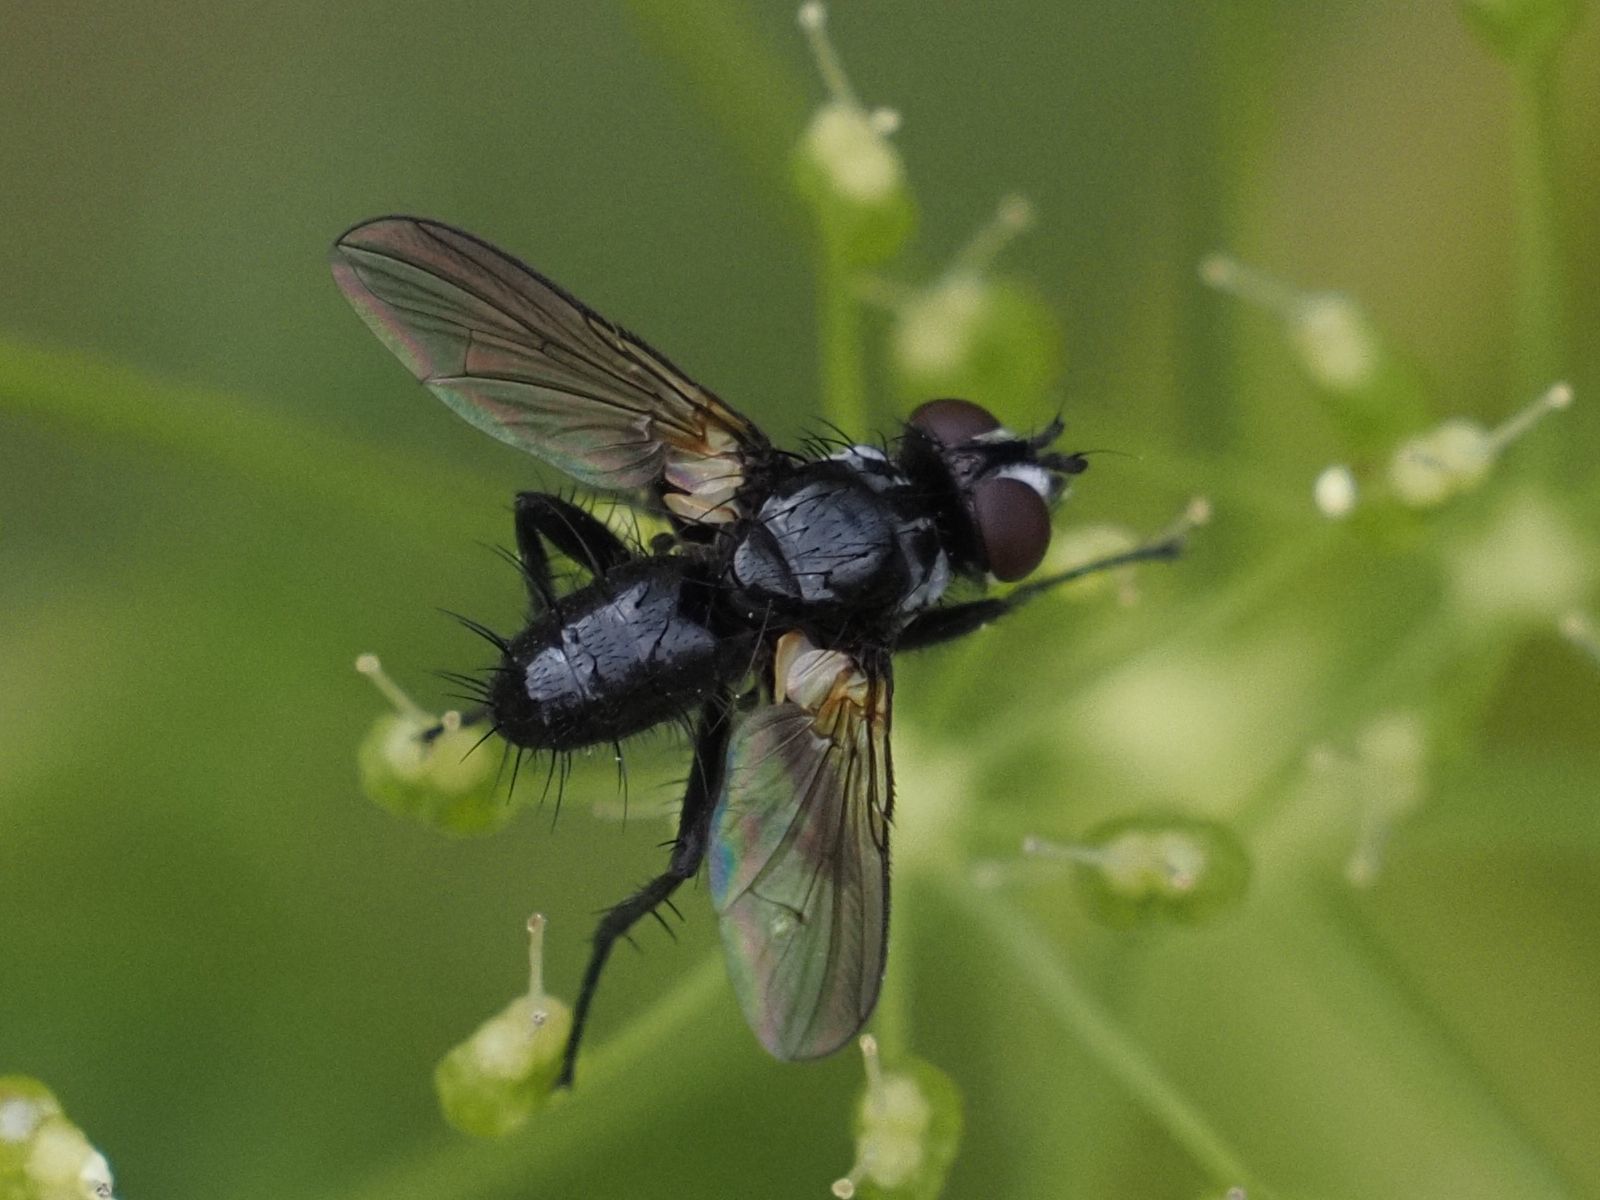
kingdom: Animalia
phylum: Arthropoda
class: Insecta
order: Diptera
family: Tachinidae
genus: Phania
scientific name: Phania funesta
